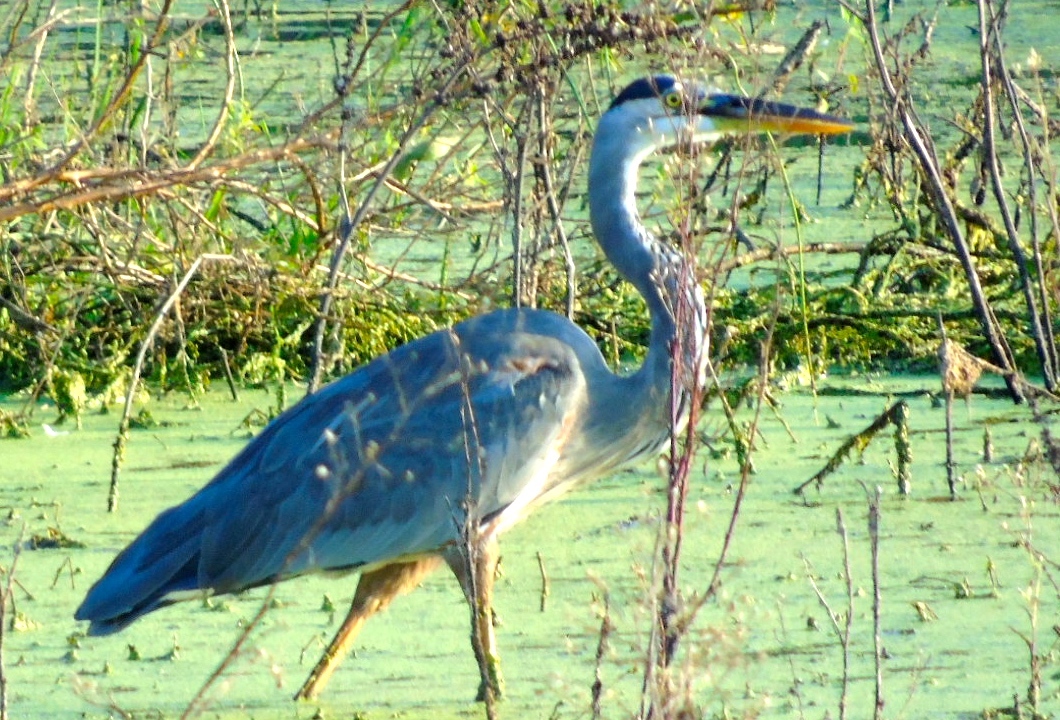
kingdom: Animalia
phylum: Chordata
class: Aves
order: Pelecaniformes
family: Ardeidae
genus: Ardea
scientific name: Ardea herodias
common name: Great blue heron
